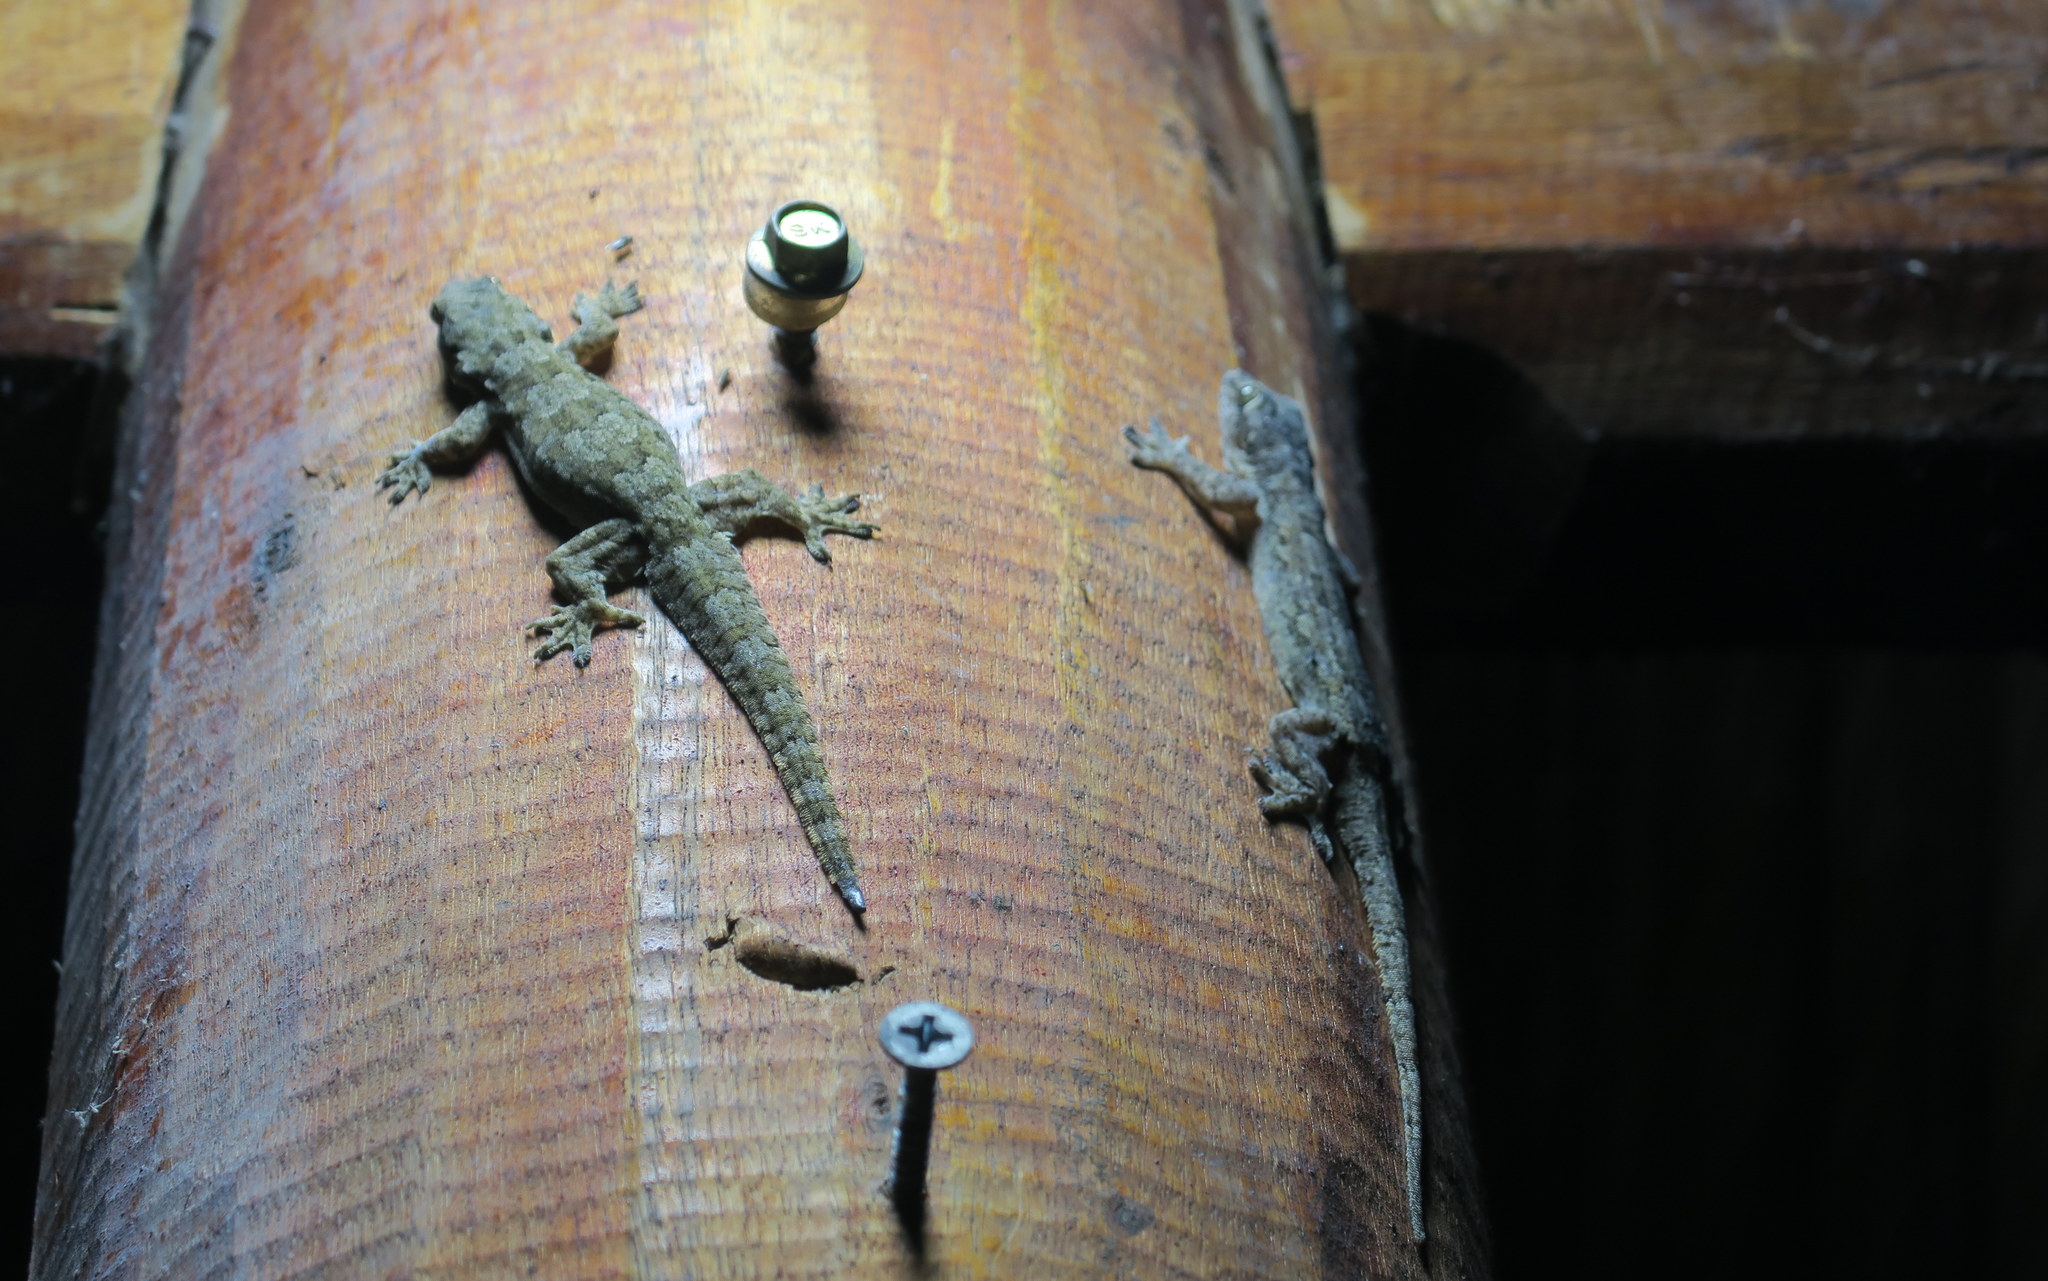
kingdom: Animalia
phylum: Chordata
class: Squamata
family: Gekkonidae
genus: Hemidactylus
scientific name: Hemidactylus platyurus
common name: Flat-tailed house gecko
